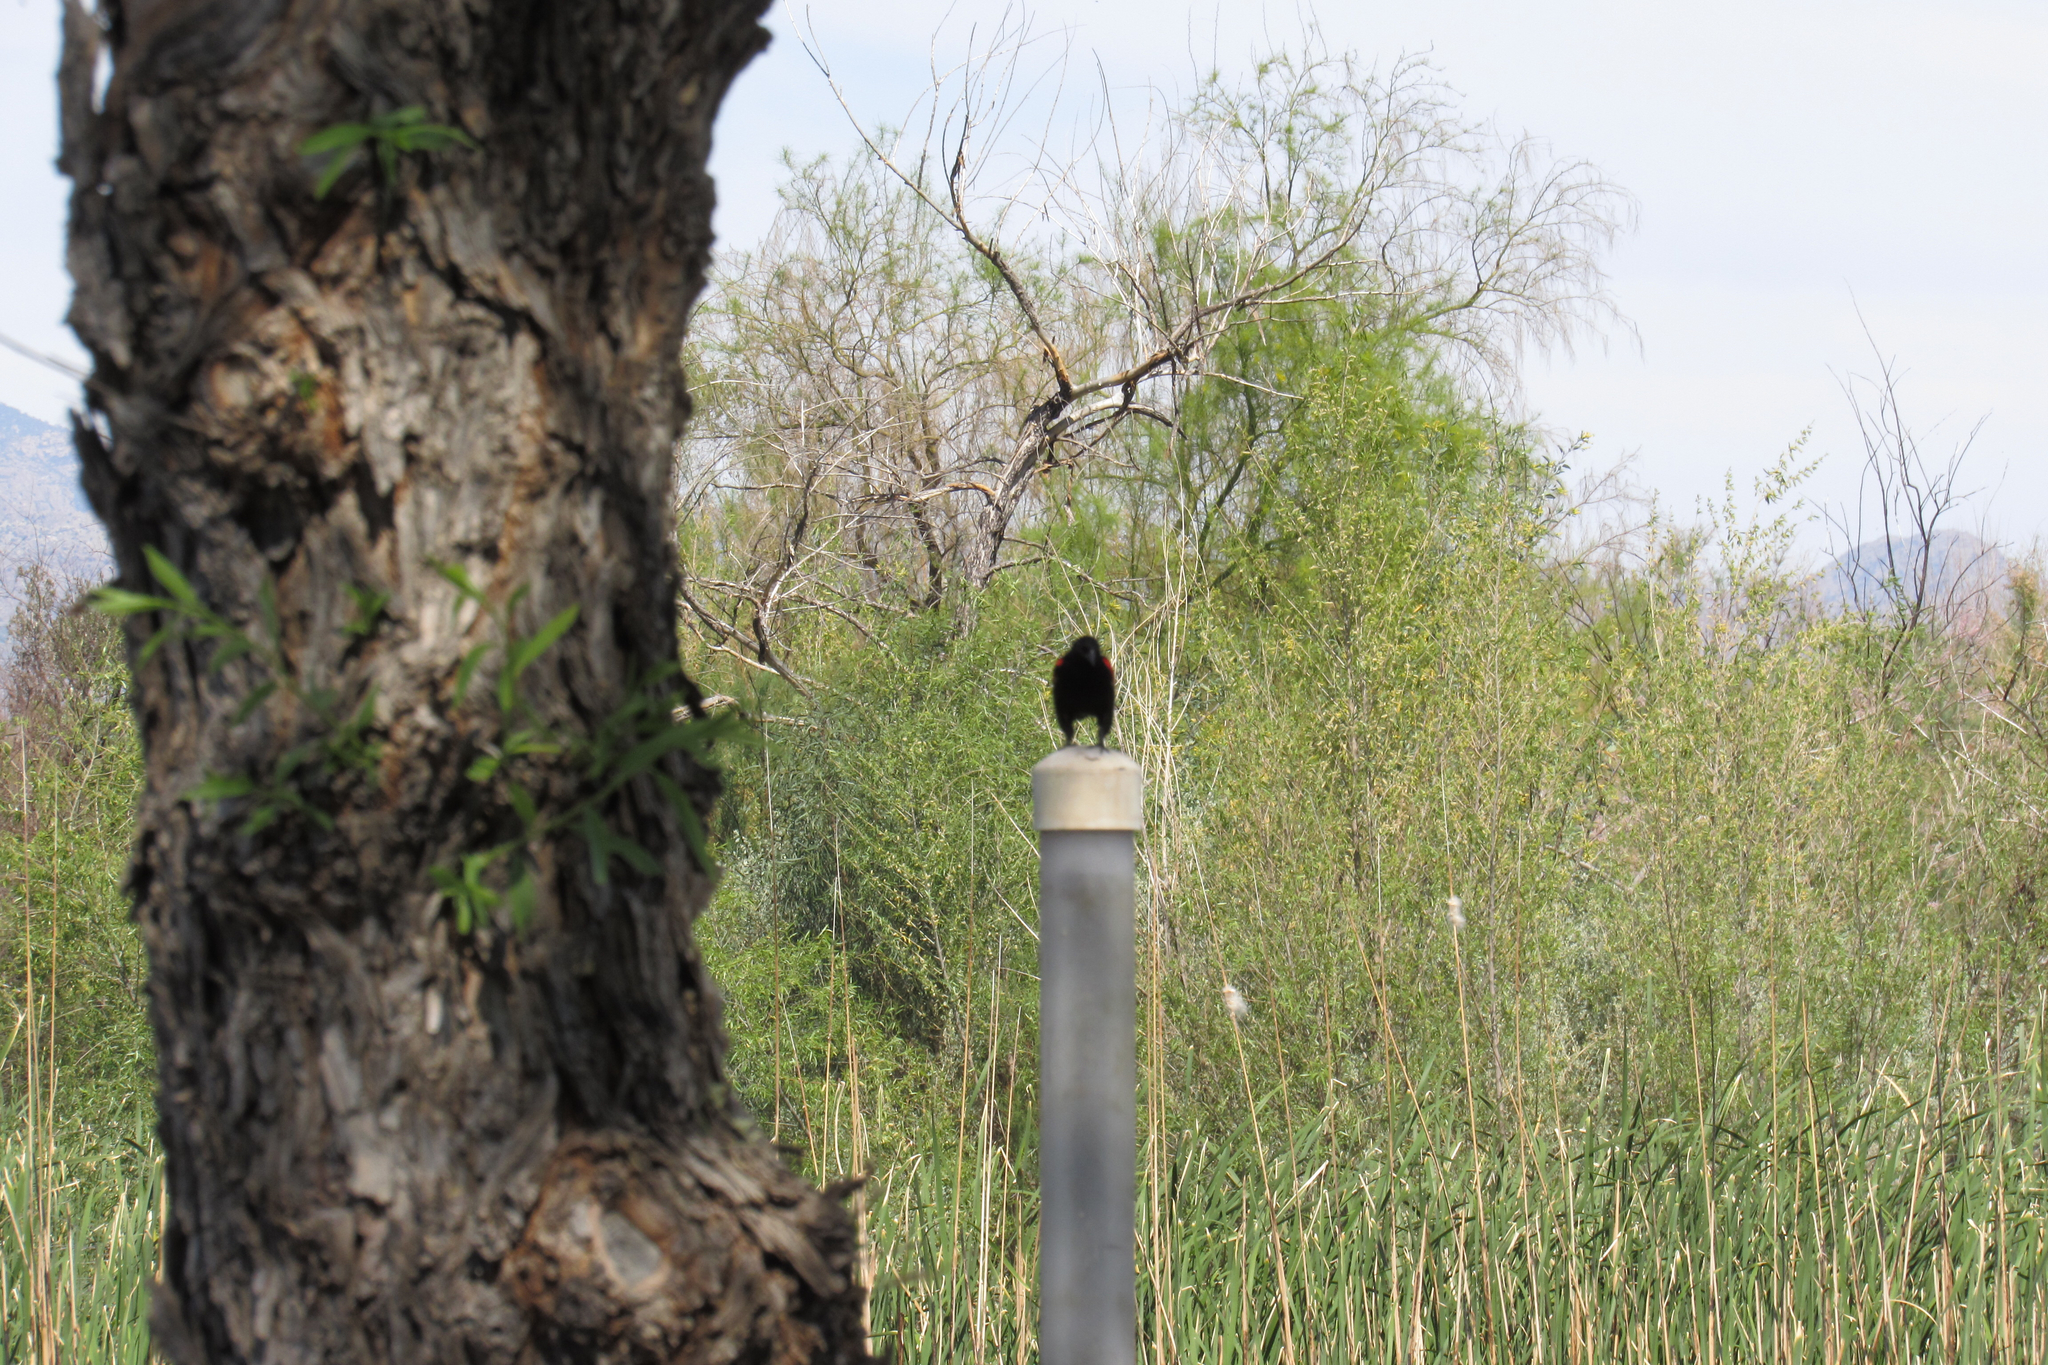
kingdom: Animalia
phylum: Chordata
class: Aves
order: Passeriformes
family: Icteridae
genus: Agelaius
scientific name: Agelaius phoeniceus
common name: Red-winged blackbird
